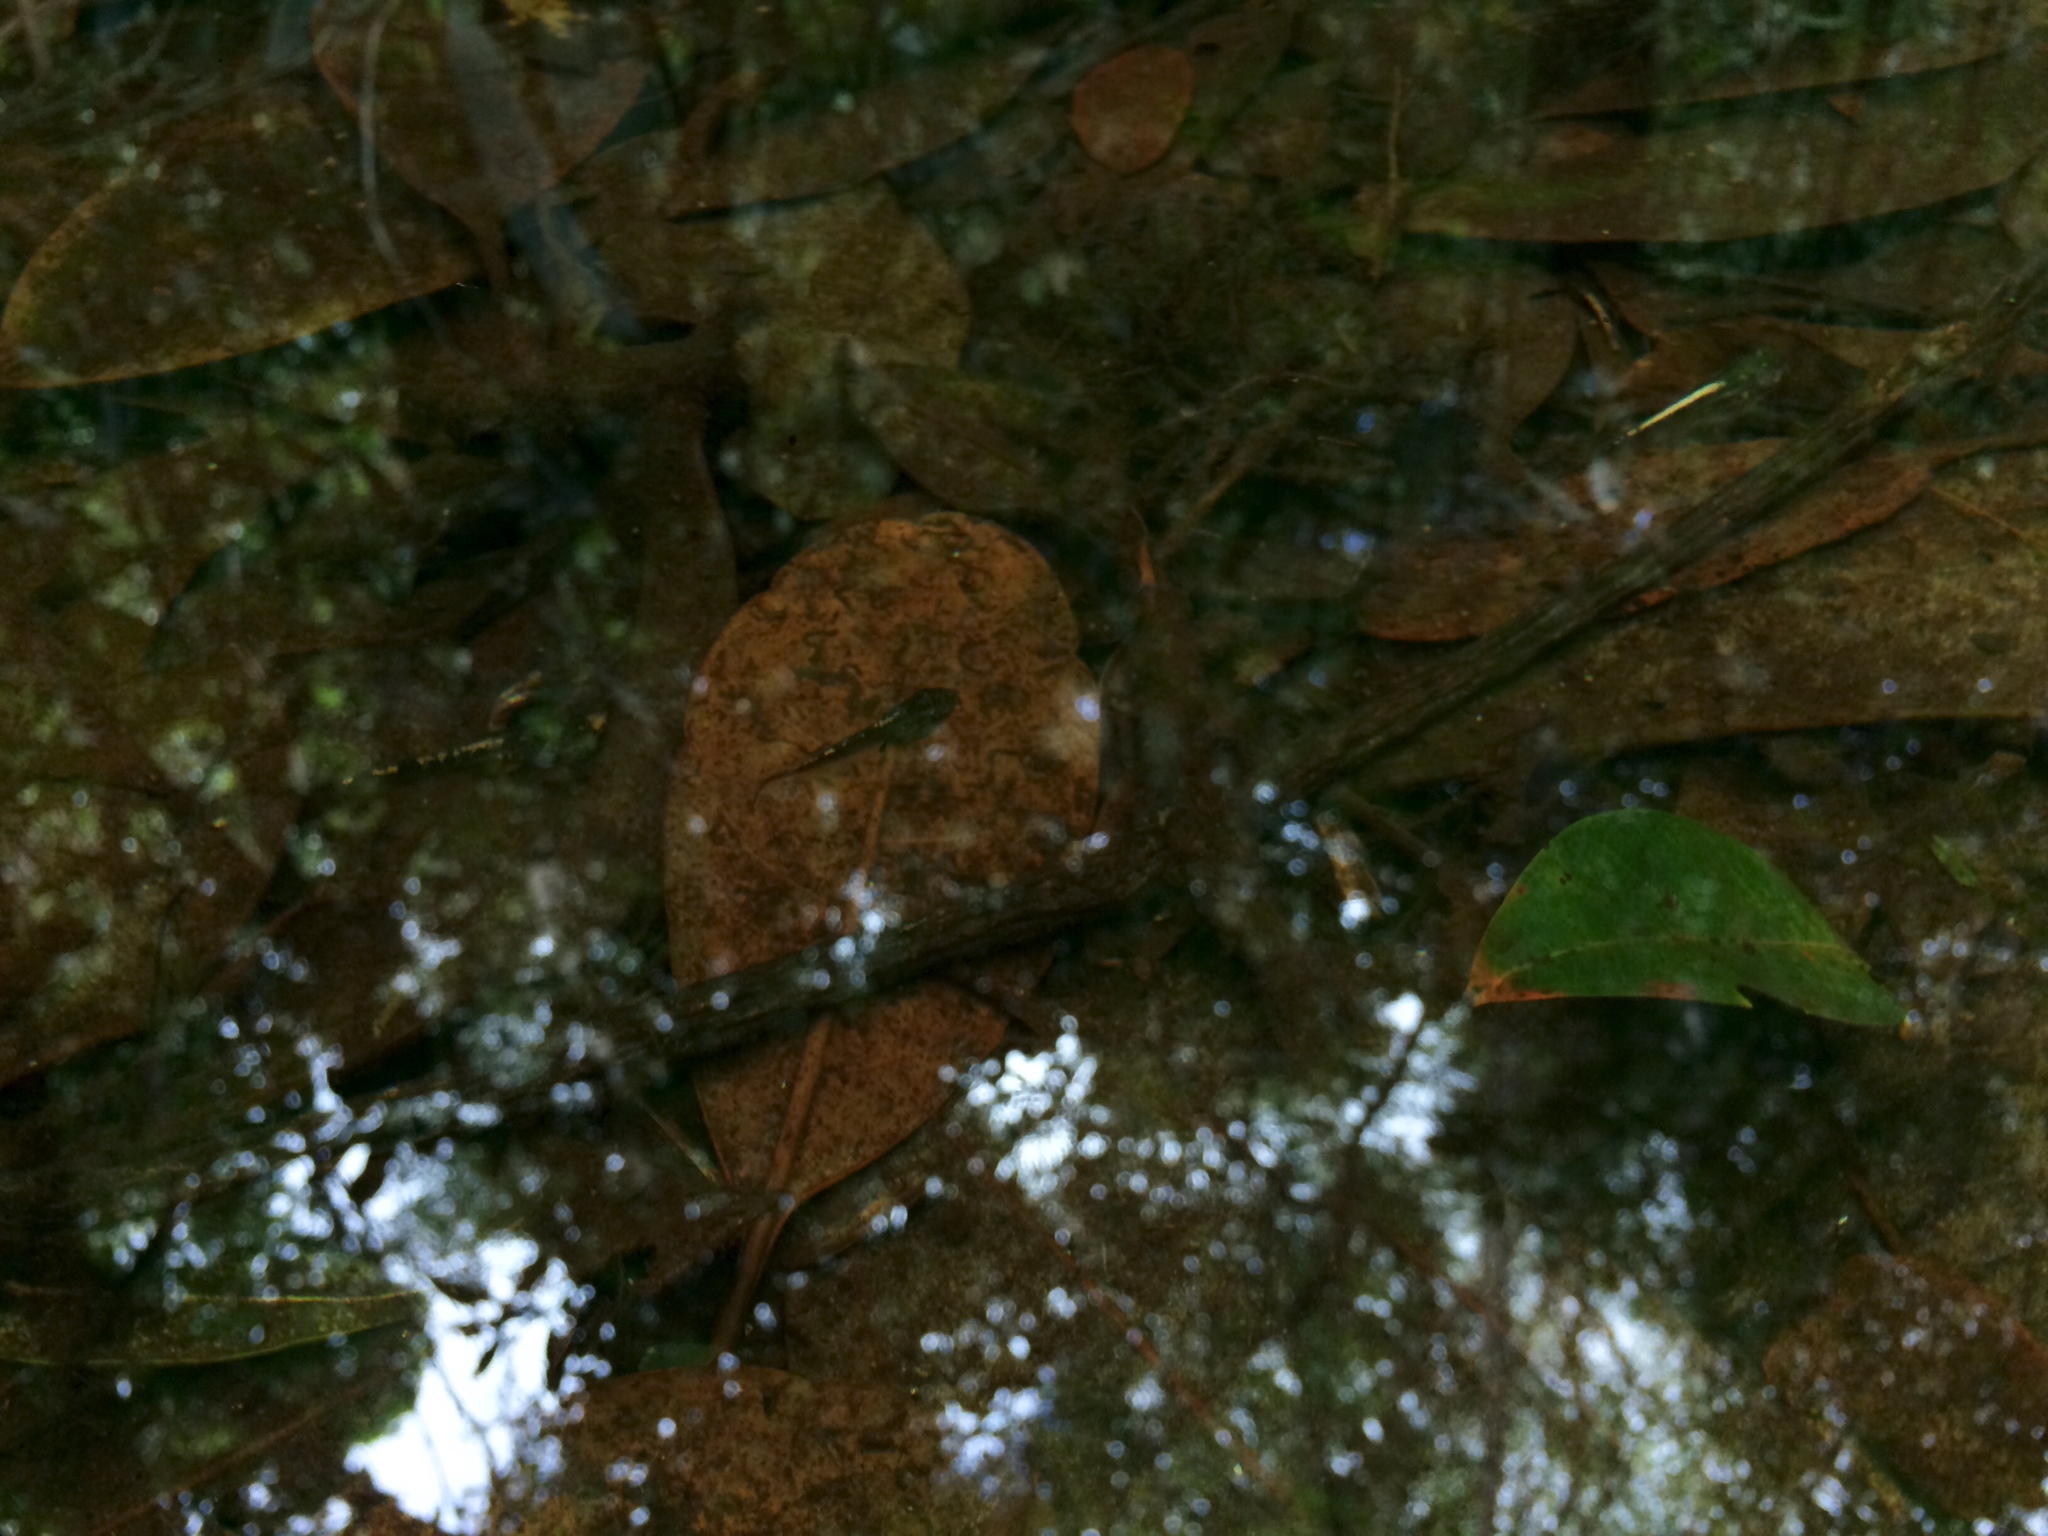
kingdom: Animalia
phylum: Chordata
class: Amphibia
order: Anura
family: Phyllomedusidae
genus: Hylomantis
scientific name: Hylomantis granulosa
